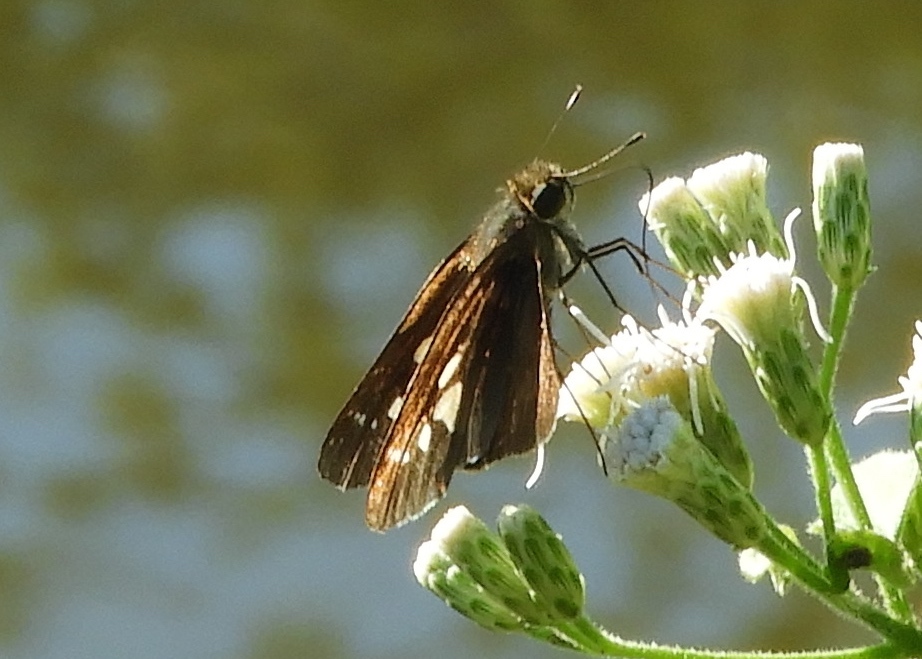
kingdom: Animalia
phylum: Arthropoda
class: Insecta
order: Lepidoptera
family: Hesperiidae
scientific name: Hesperiidae
